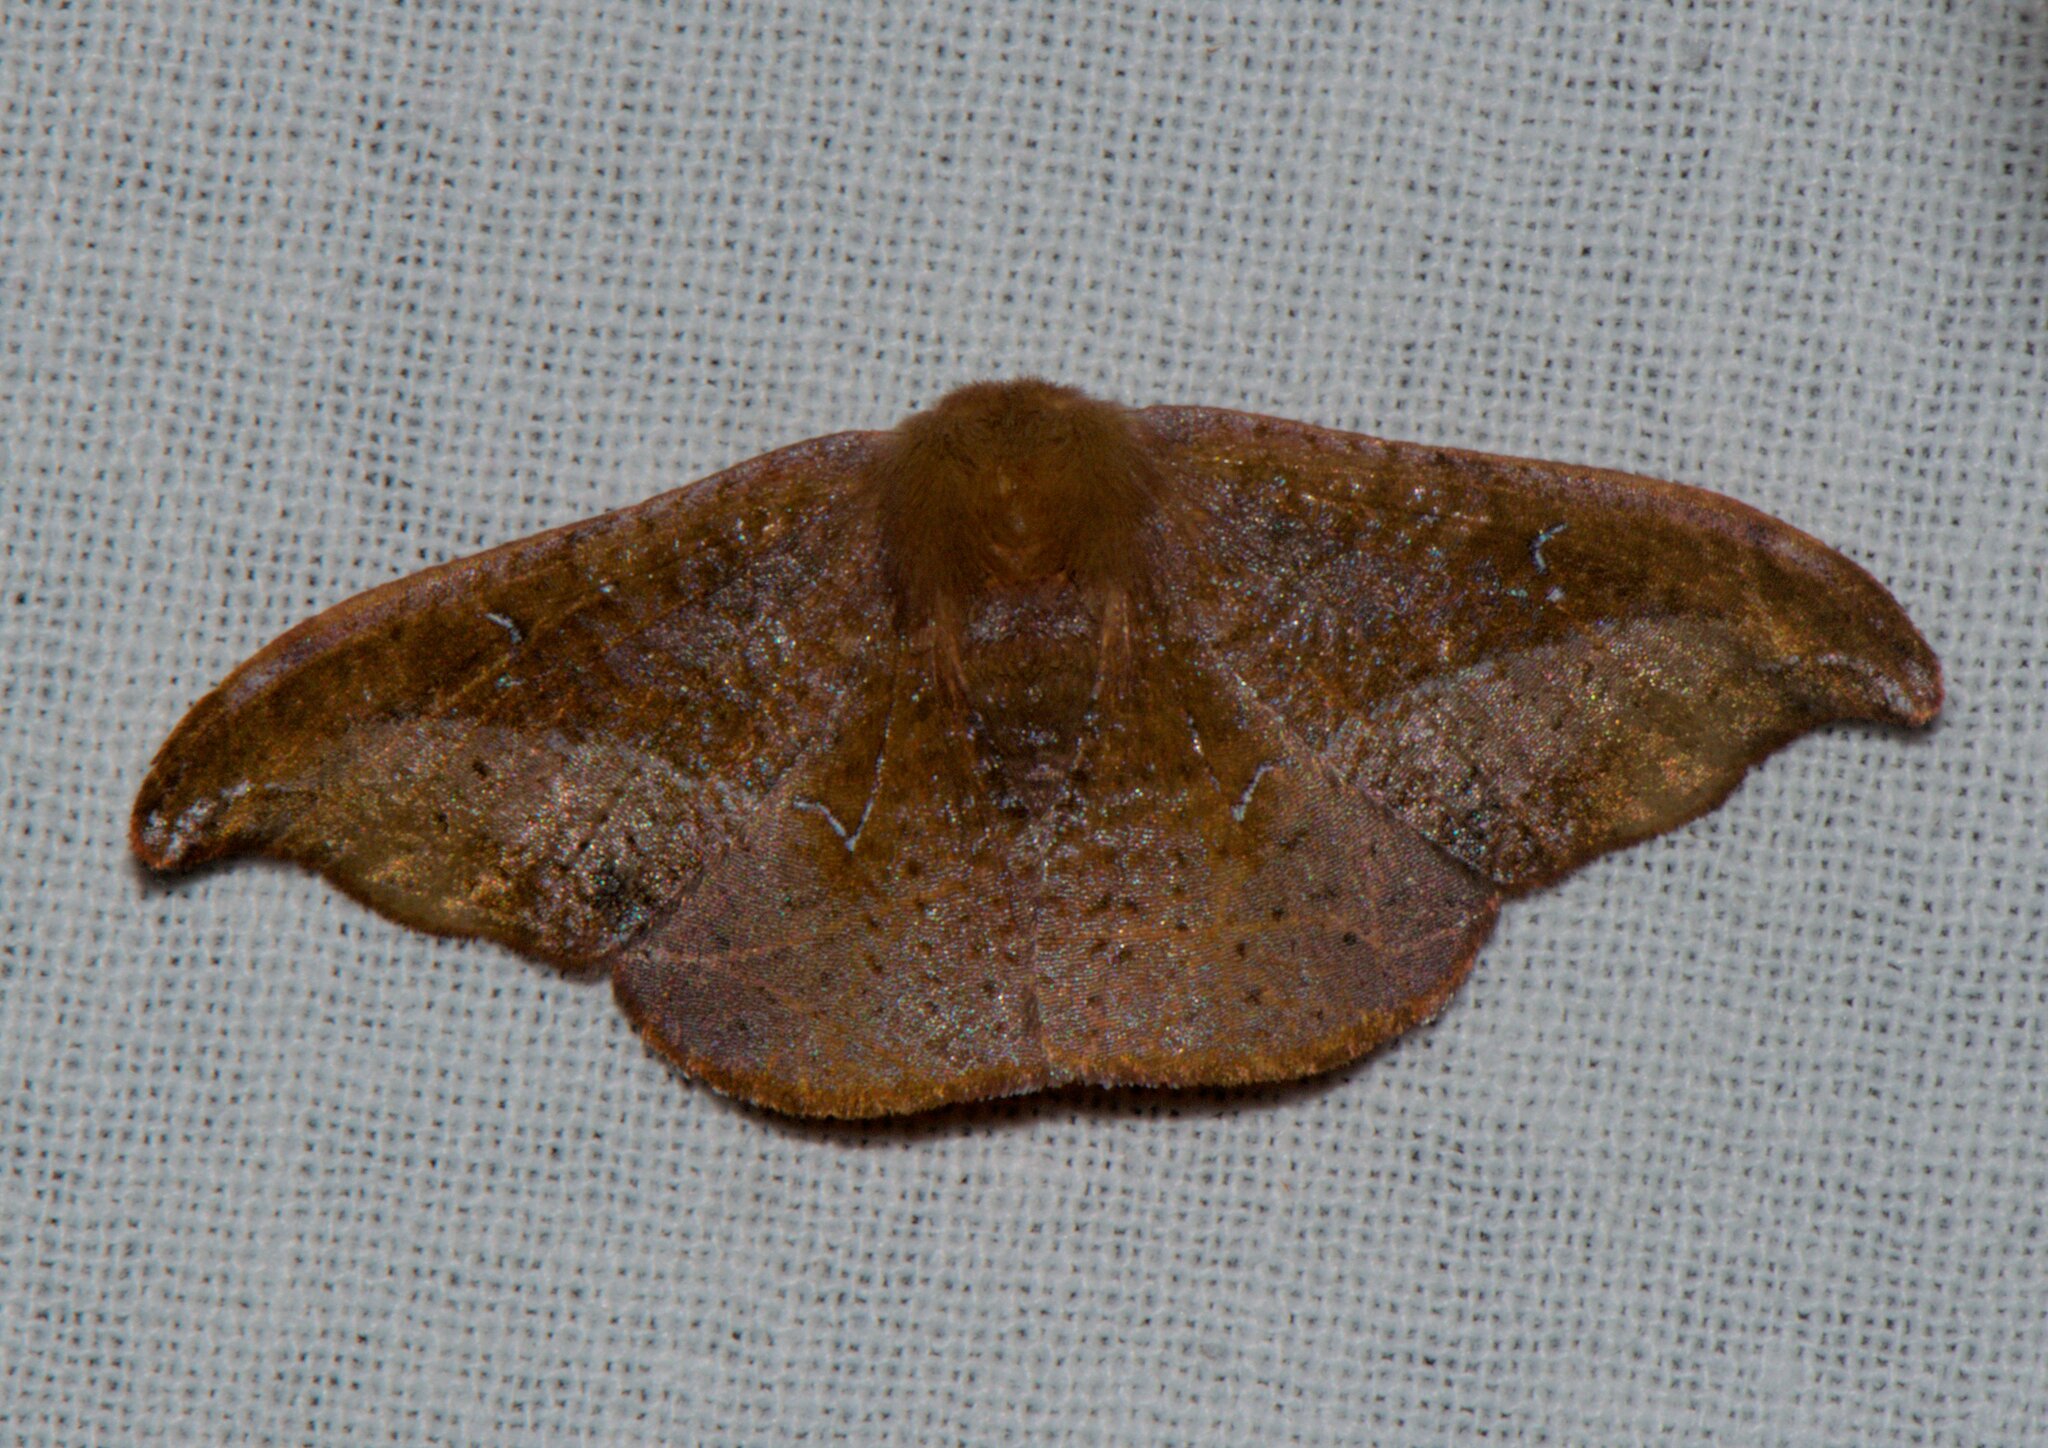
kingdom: Animalia
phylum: Arthropoda
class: Insecta
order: Lepidoptera
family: Drepanidae
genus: Oreta
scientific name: Oreta pavaca
